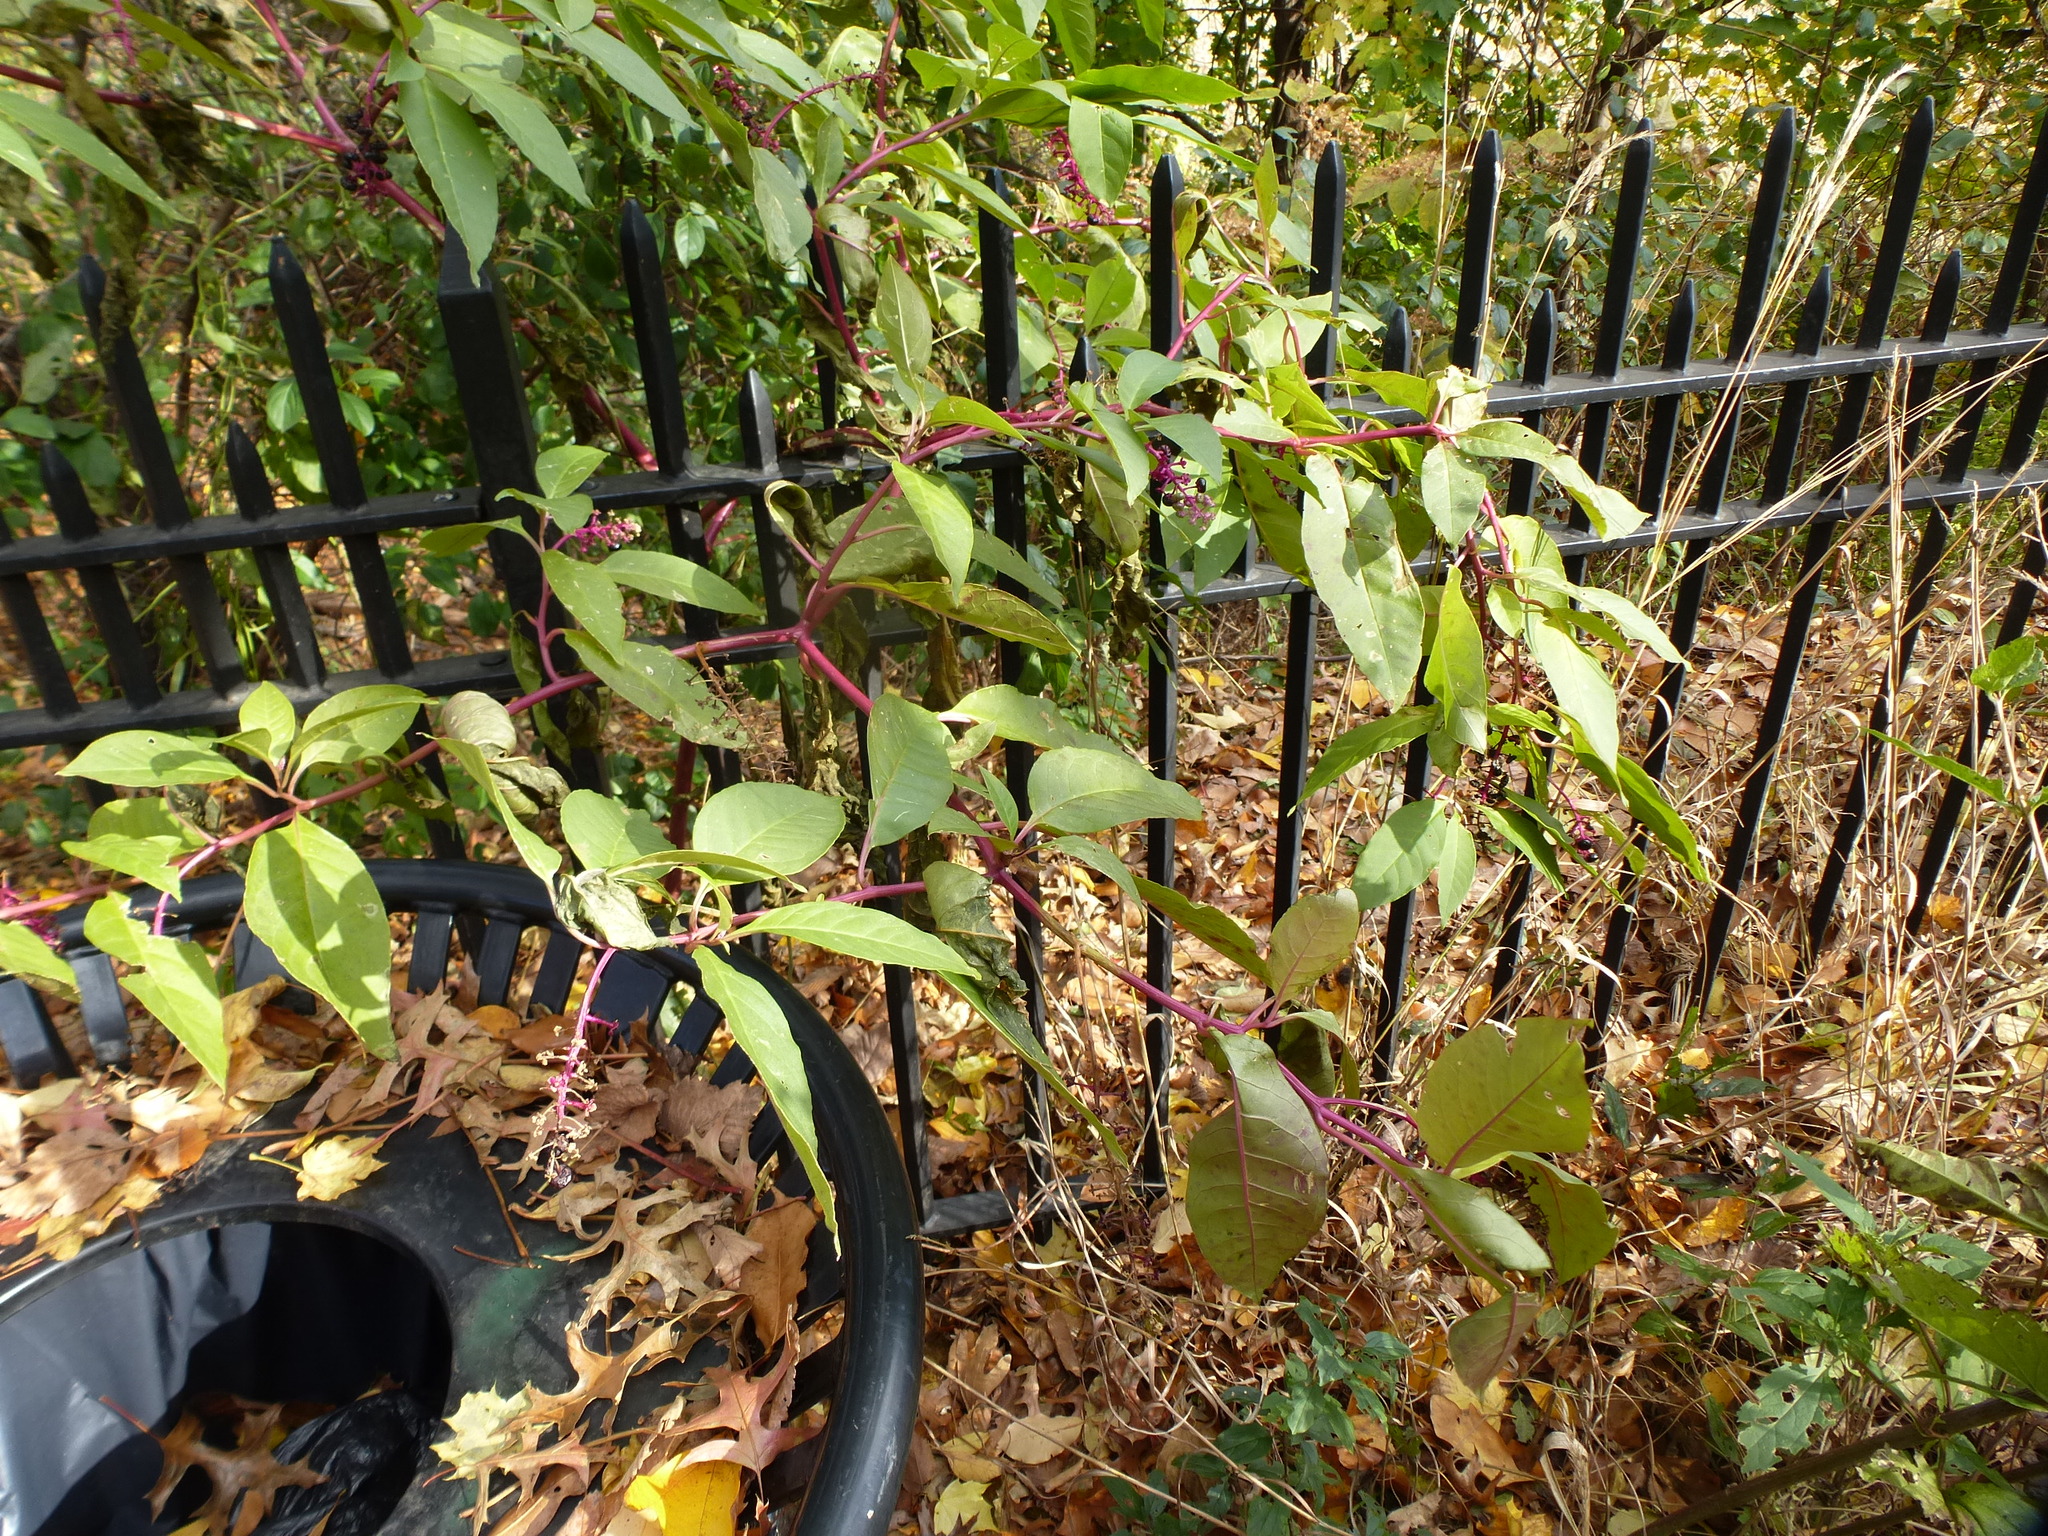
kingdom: Plantae
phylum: Tracheophyta
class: Magnoliopsida
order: Caryophyllales
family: Phytolaccaceae
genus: Phytolacca
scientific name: Phytolacca americana
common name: American pokeweed
